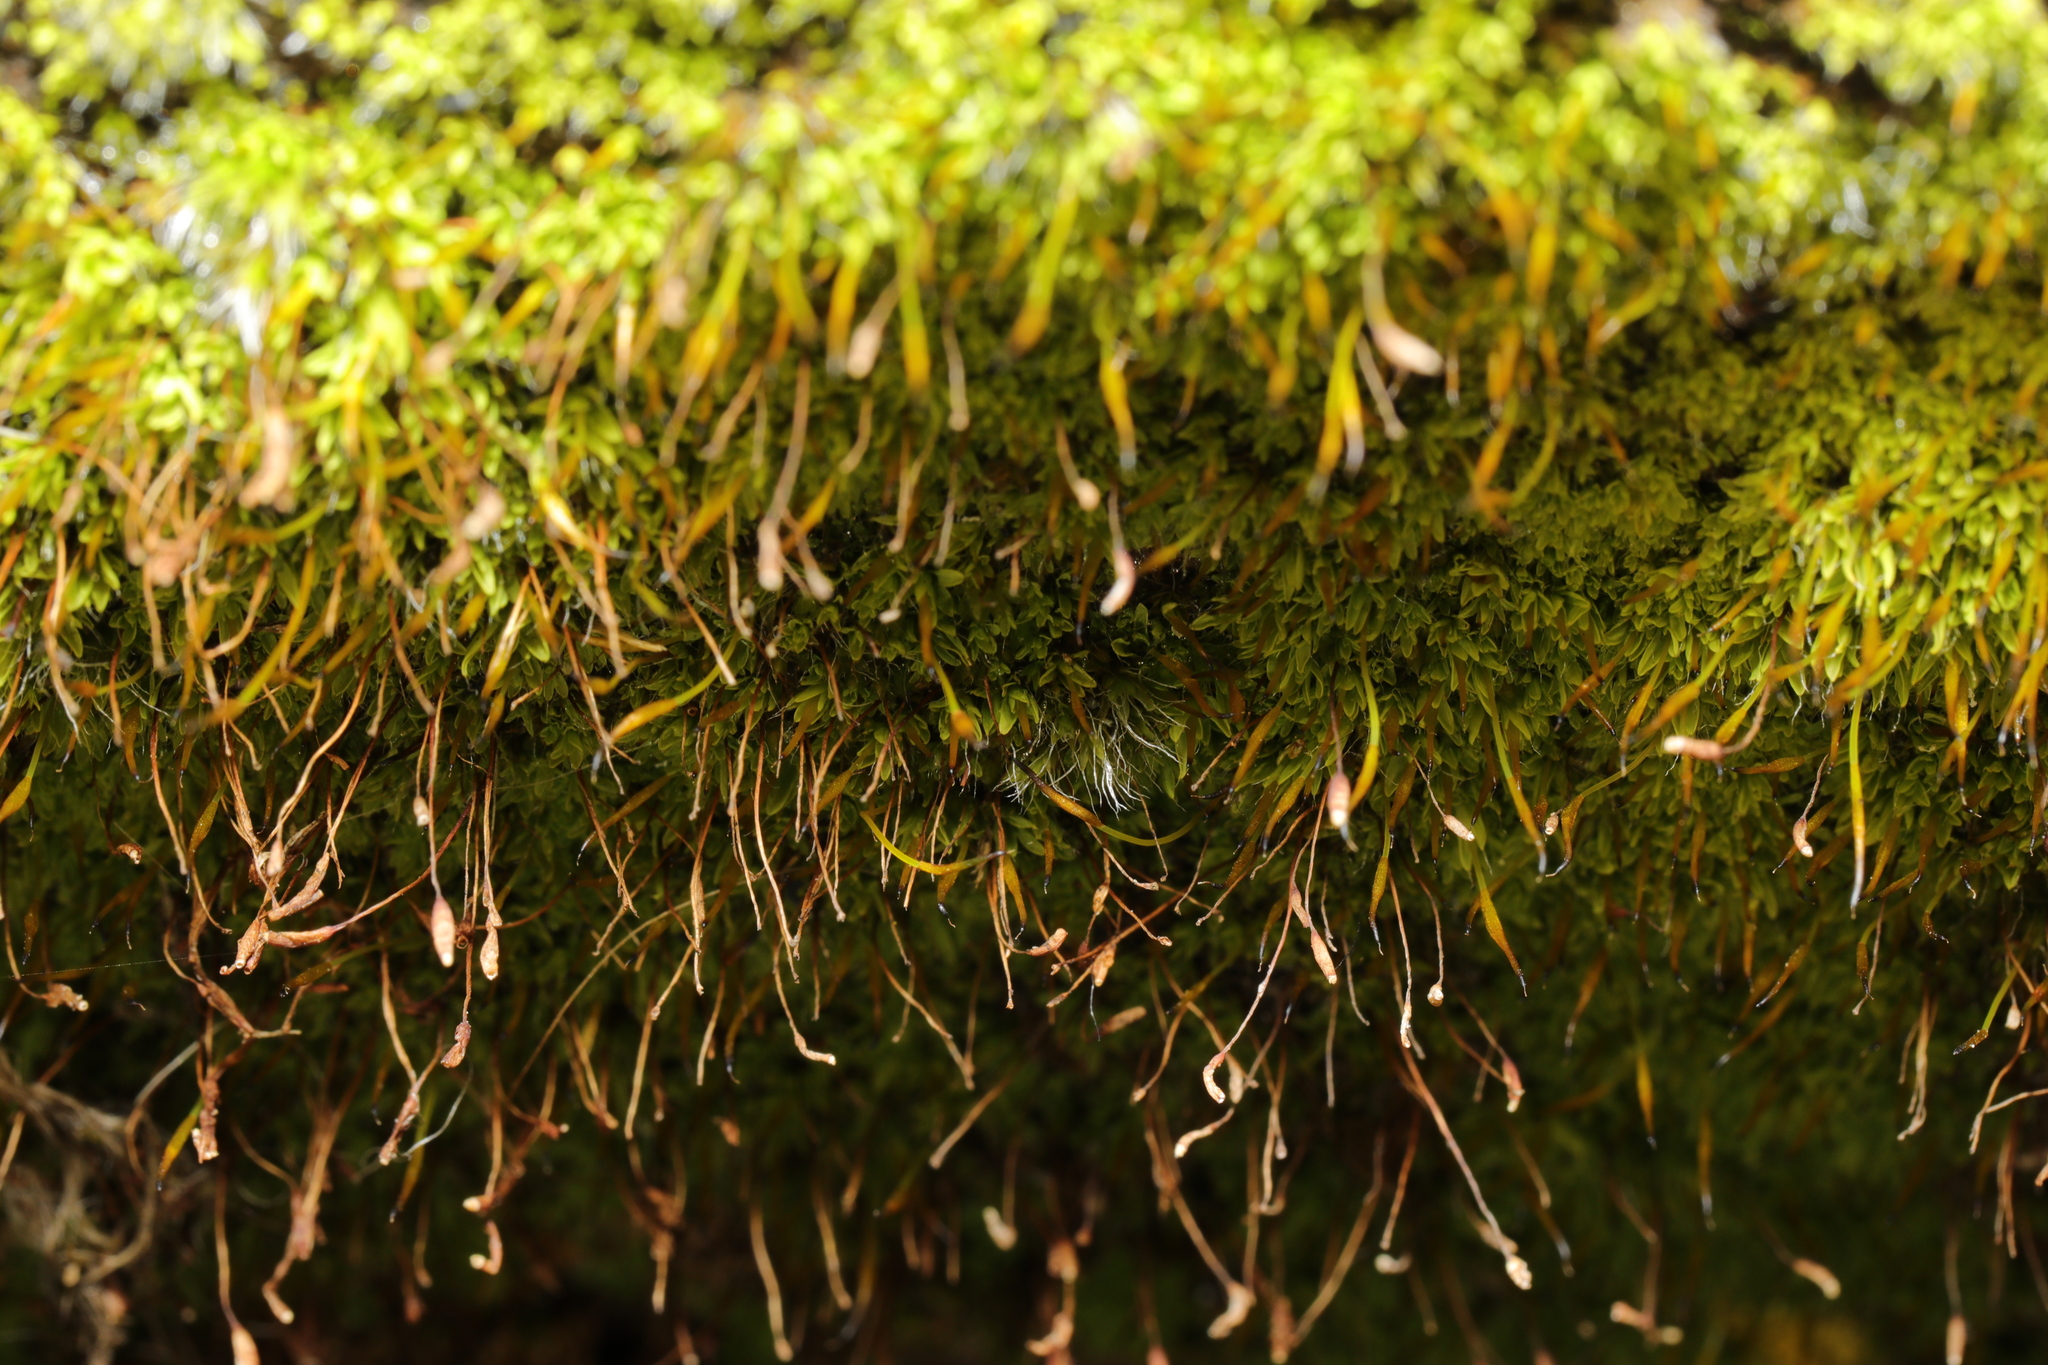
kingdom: Plantae
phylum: Bryophyta
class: Bryopsida
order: Pottiales
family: Pottiaceae
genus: Tortula
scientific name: Tortula muralis
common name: Wall screw-moss
